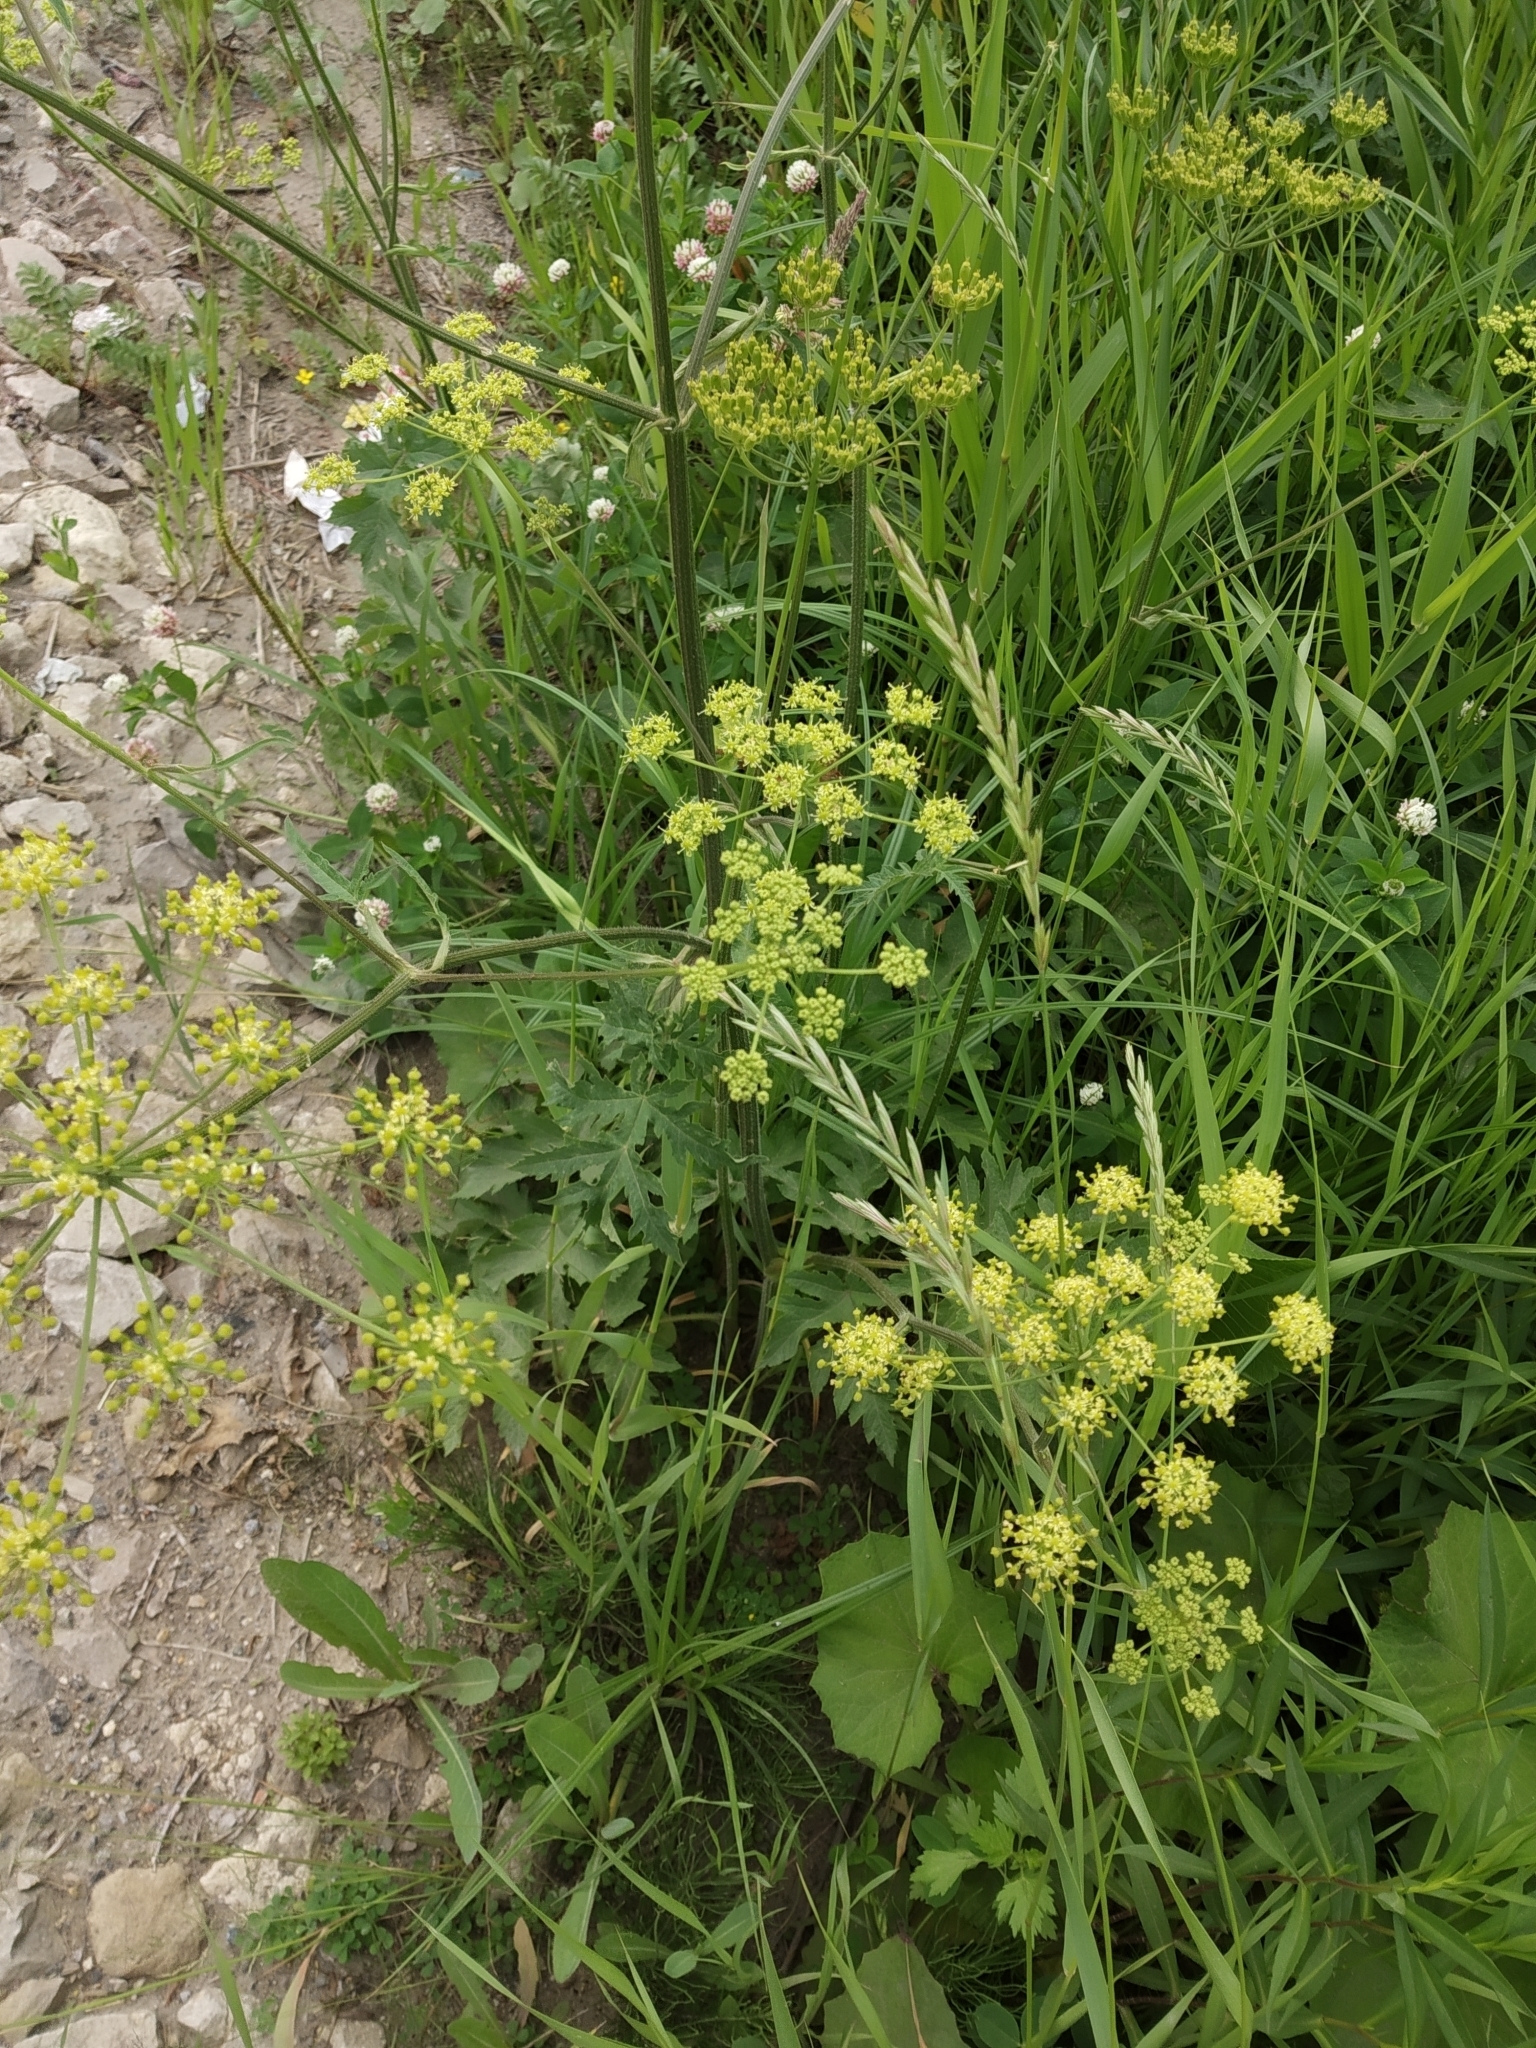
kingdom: Plantae
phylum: Tracheophyta
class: Magnoliopsida
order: Apiales
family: Apiaceae
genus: Heracleum
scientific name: Heracleum sphondylium
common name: Hogweed
